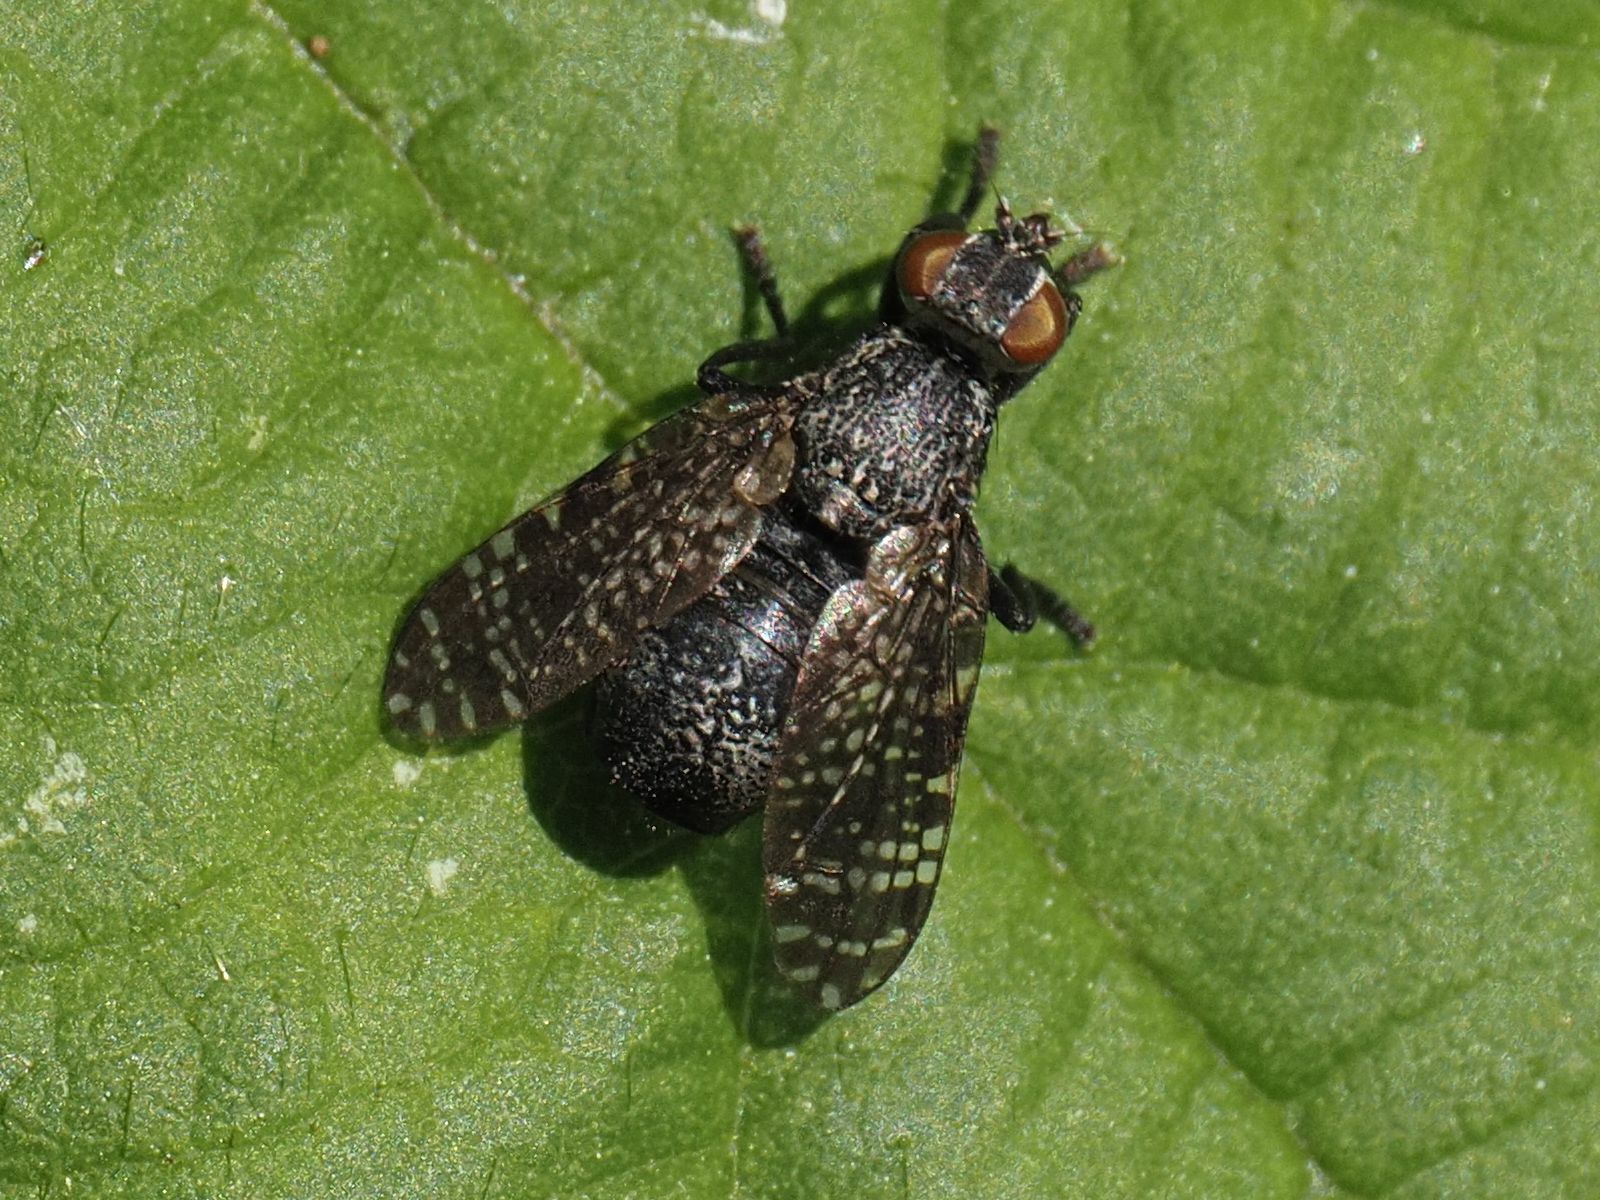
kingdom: Animalia
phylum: Arthropoda
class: Insecta
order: Diptera
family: Platystomatidae
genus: Platystoma
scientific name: Platystoma seminationis
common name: Fly
